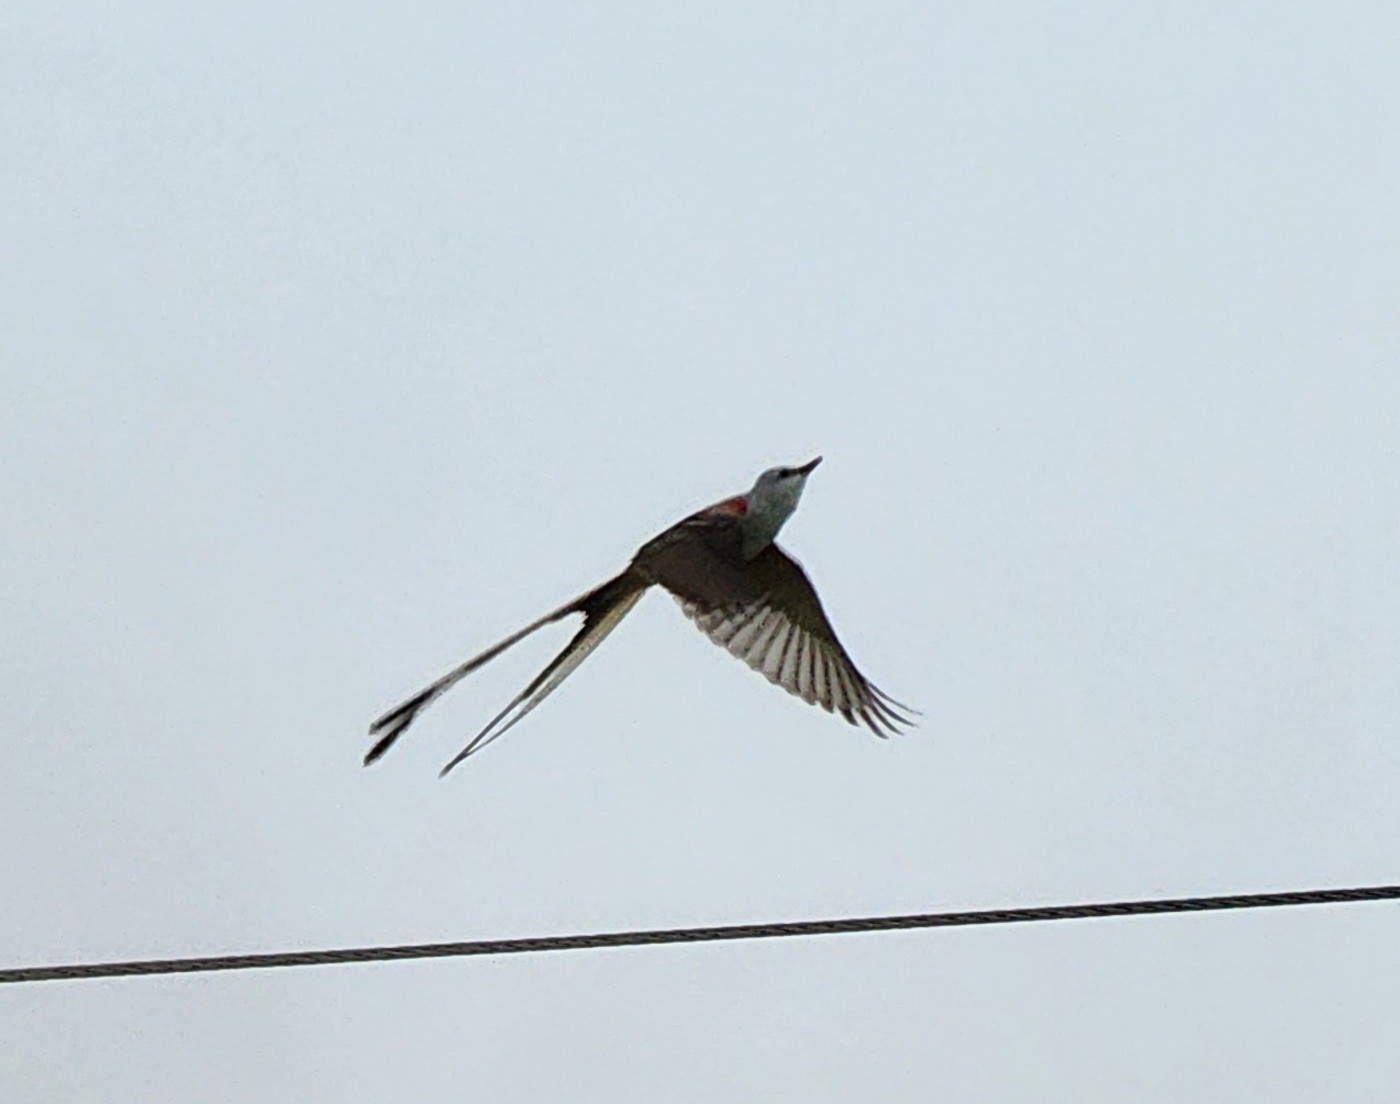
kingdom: Animalia
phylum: Chordata
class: Aves
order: Passeriformes
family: Tyrannidae
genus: Tyrannus
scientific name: Tyrannus forficatus
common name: Scissor-tailed flycatcher
